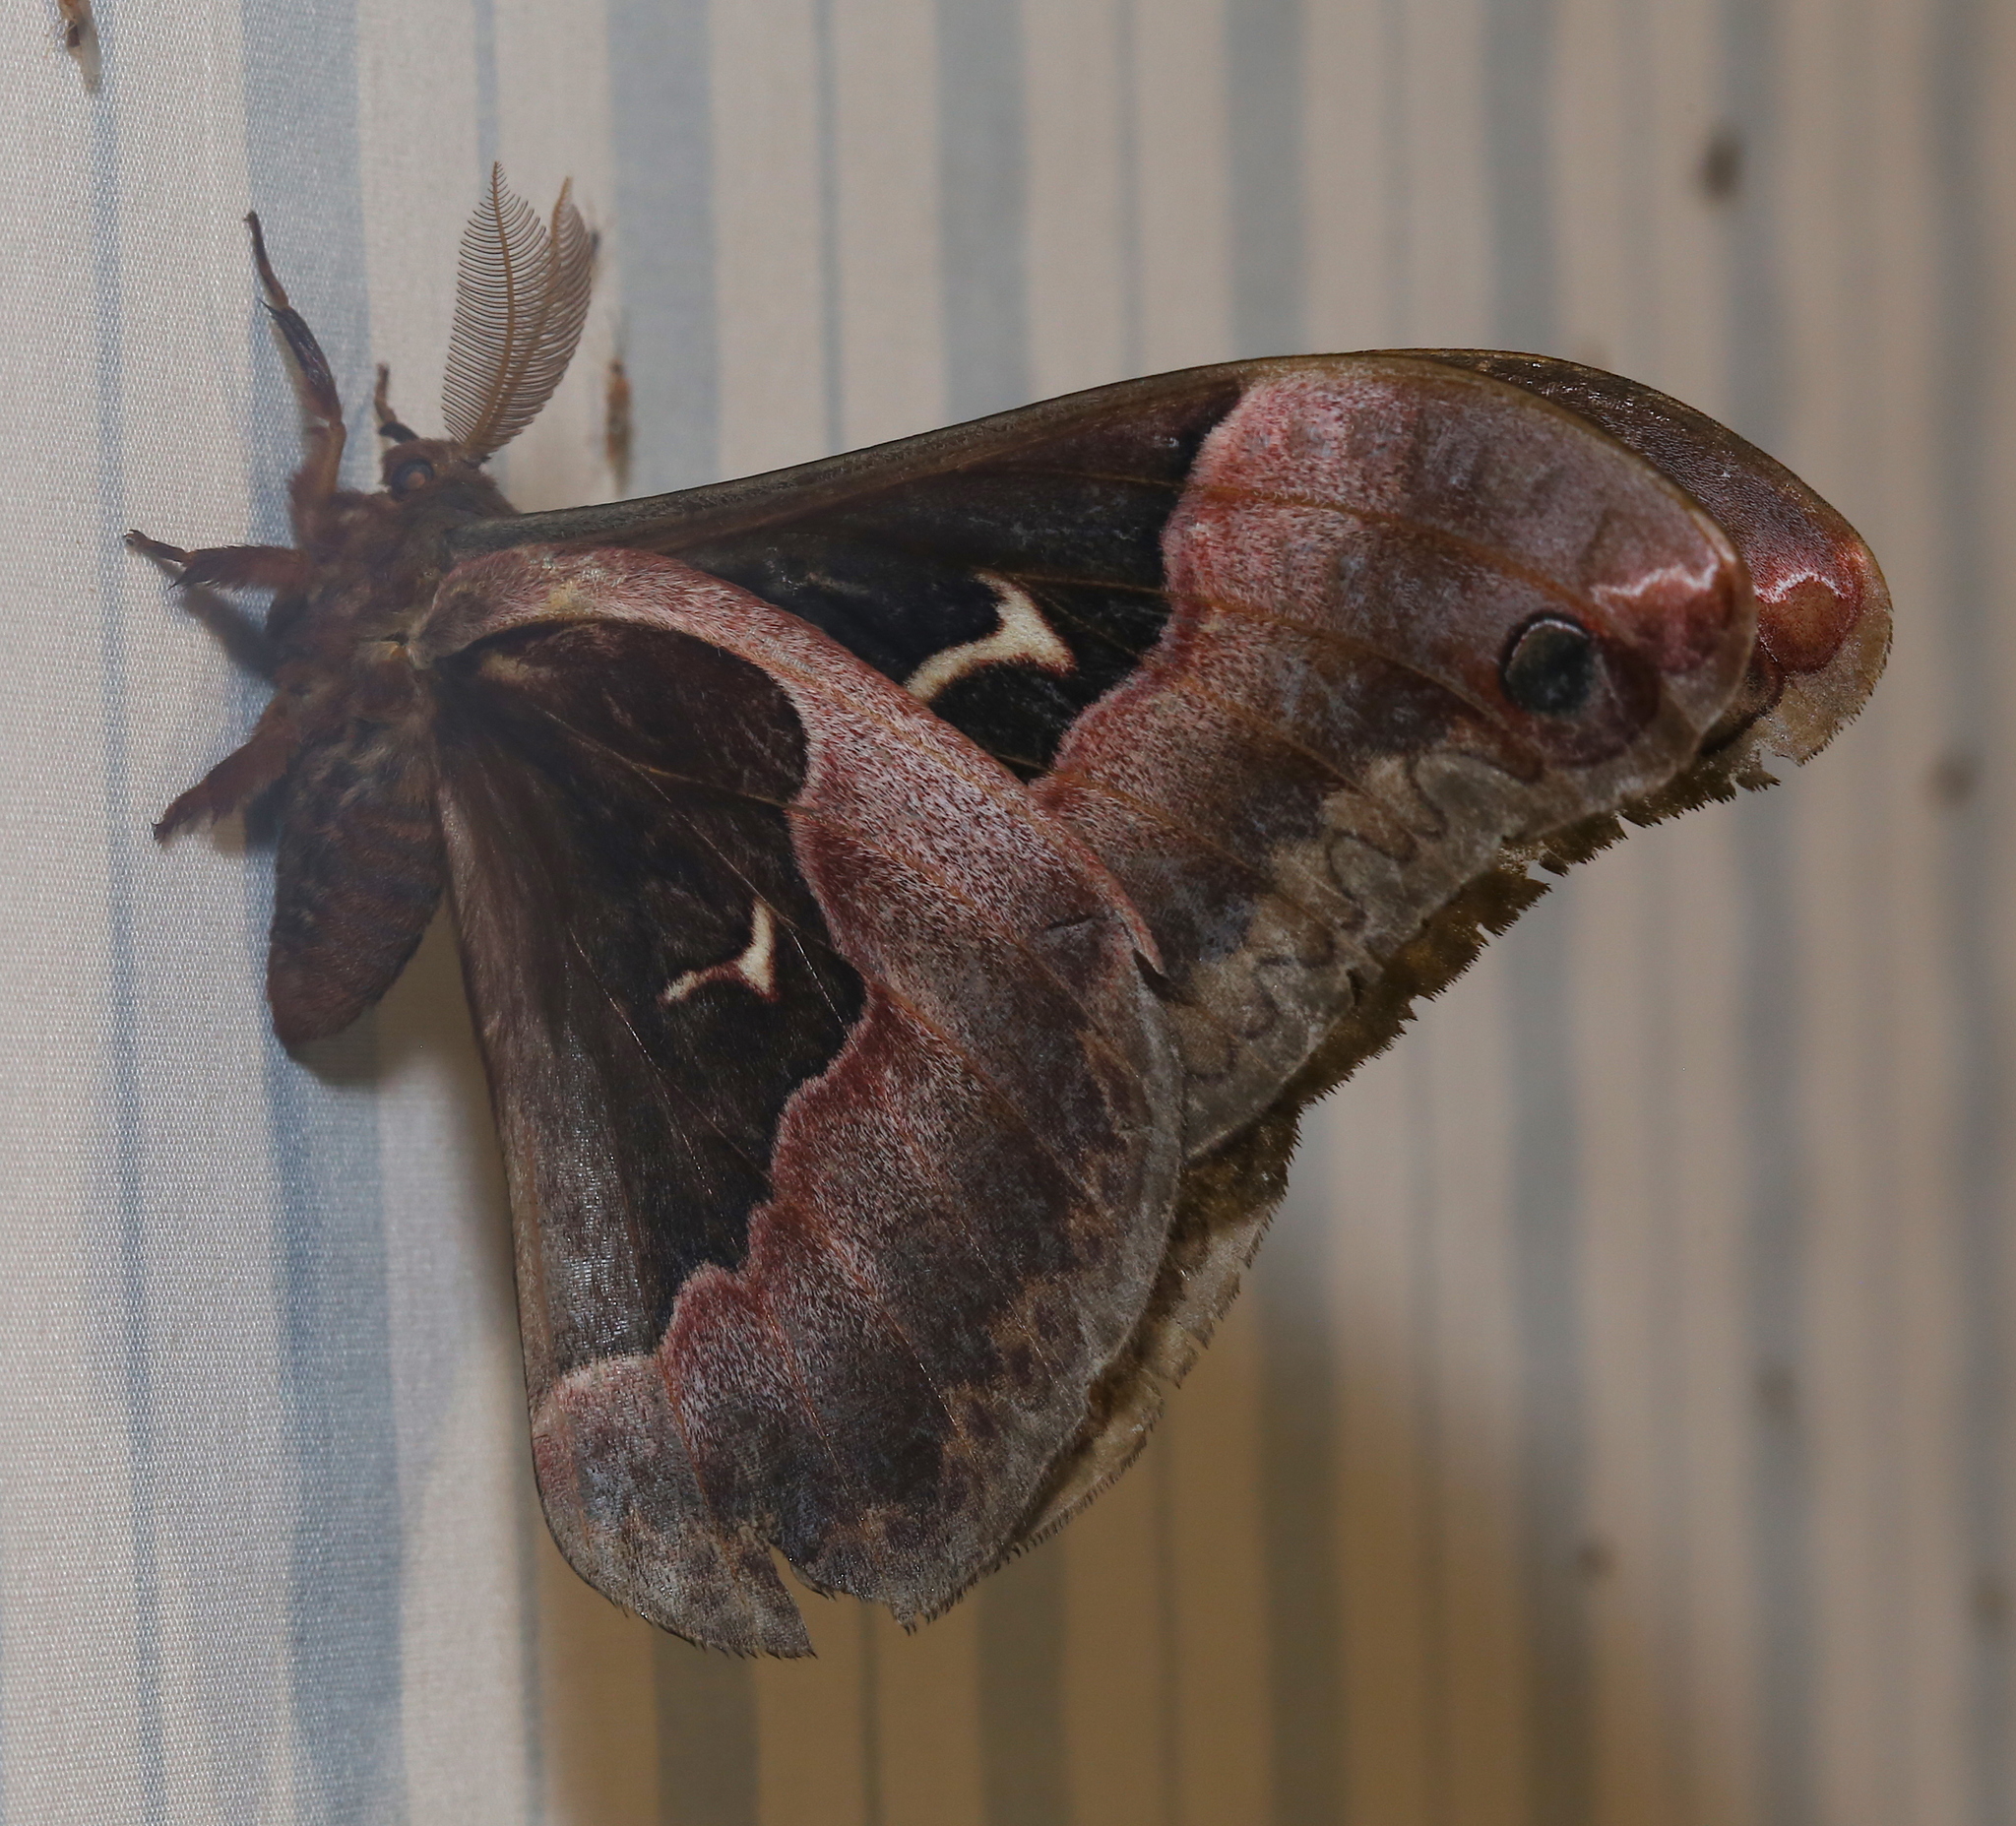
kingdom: Animalia
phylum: Arthropoda
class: Insecta
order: Lepidoptera
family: Saturniidae
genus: Callosamia
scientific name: Callosamia angulifera
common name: Tulip tree silkmoth
